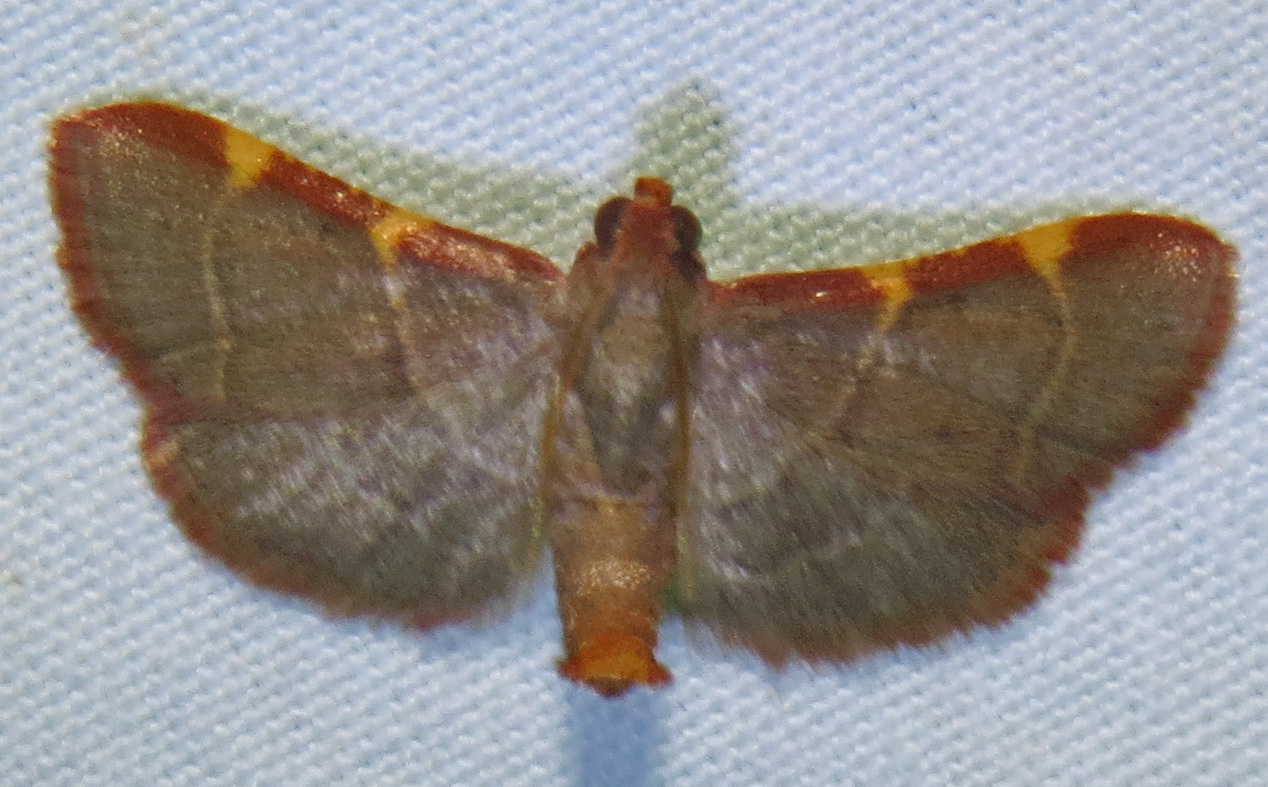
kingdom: Animalia
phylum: Arthropoda
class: Insecta
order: Lepidoptera
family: Pyralidae
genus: Hypsopygia
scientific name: Hypsopygia binodulalis
